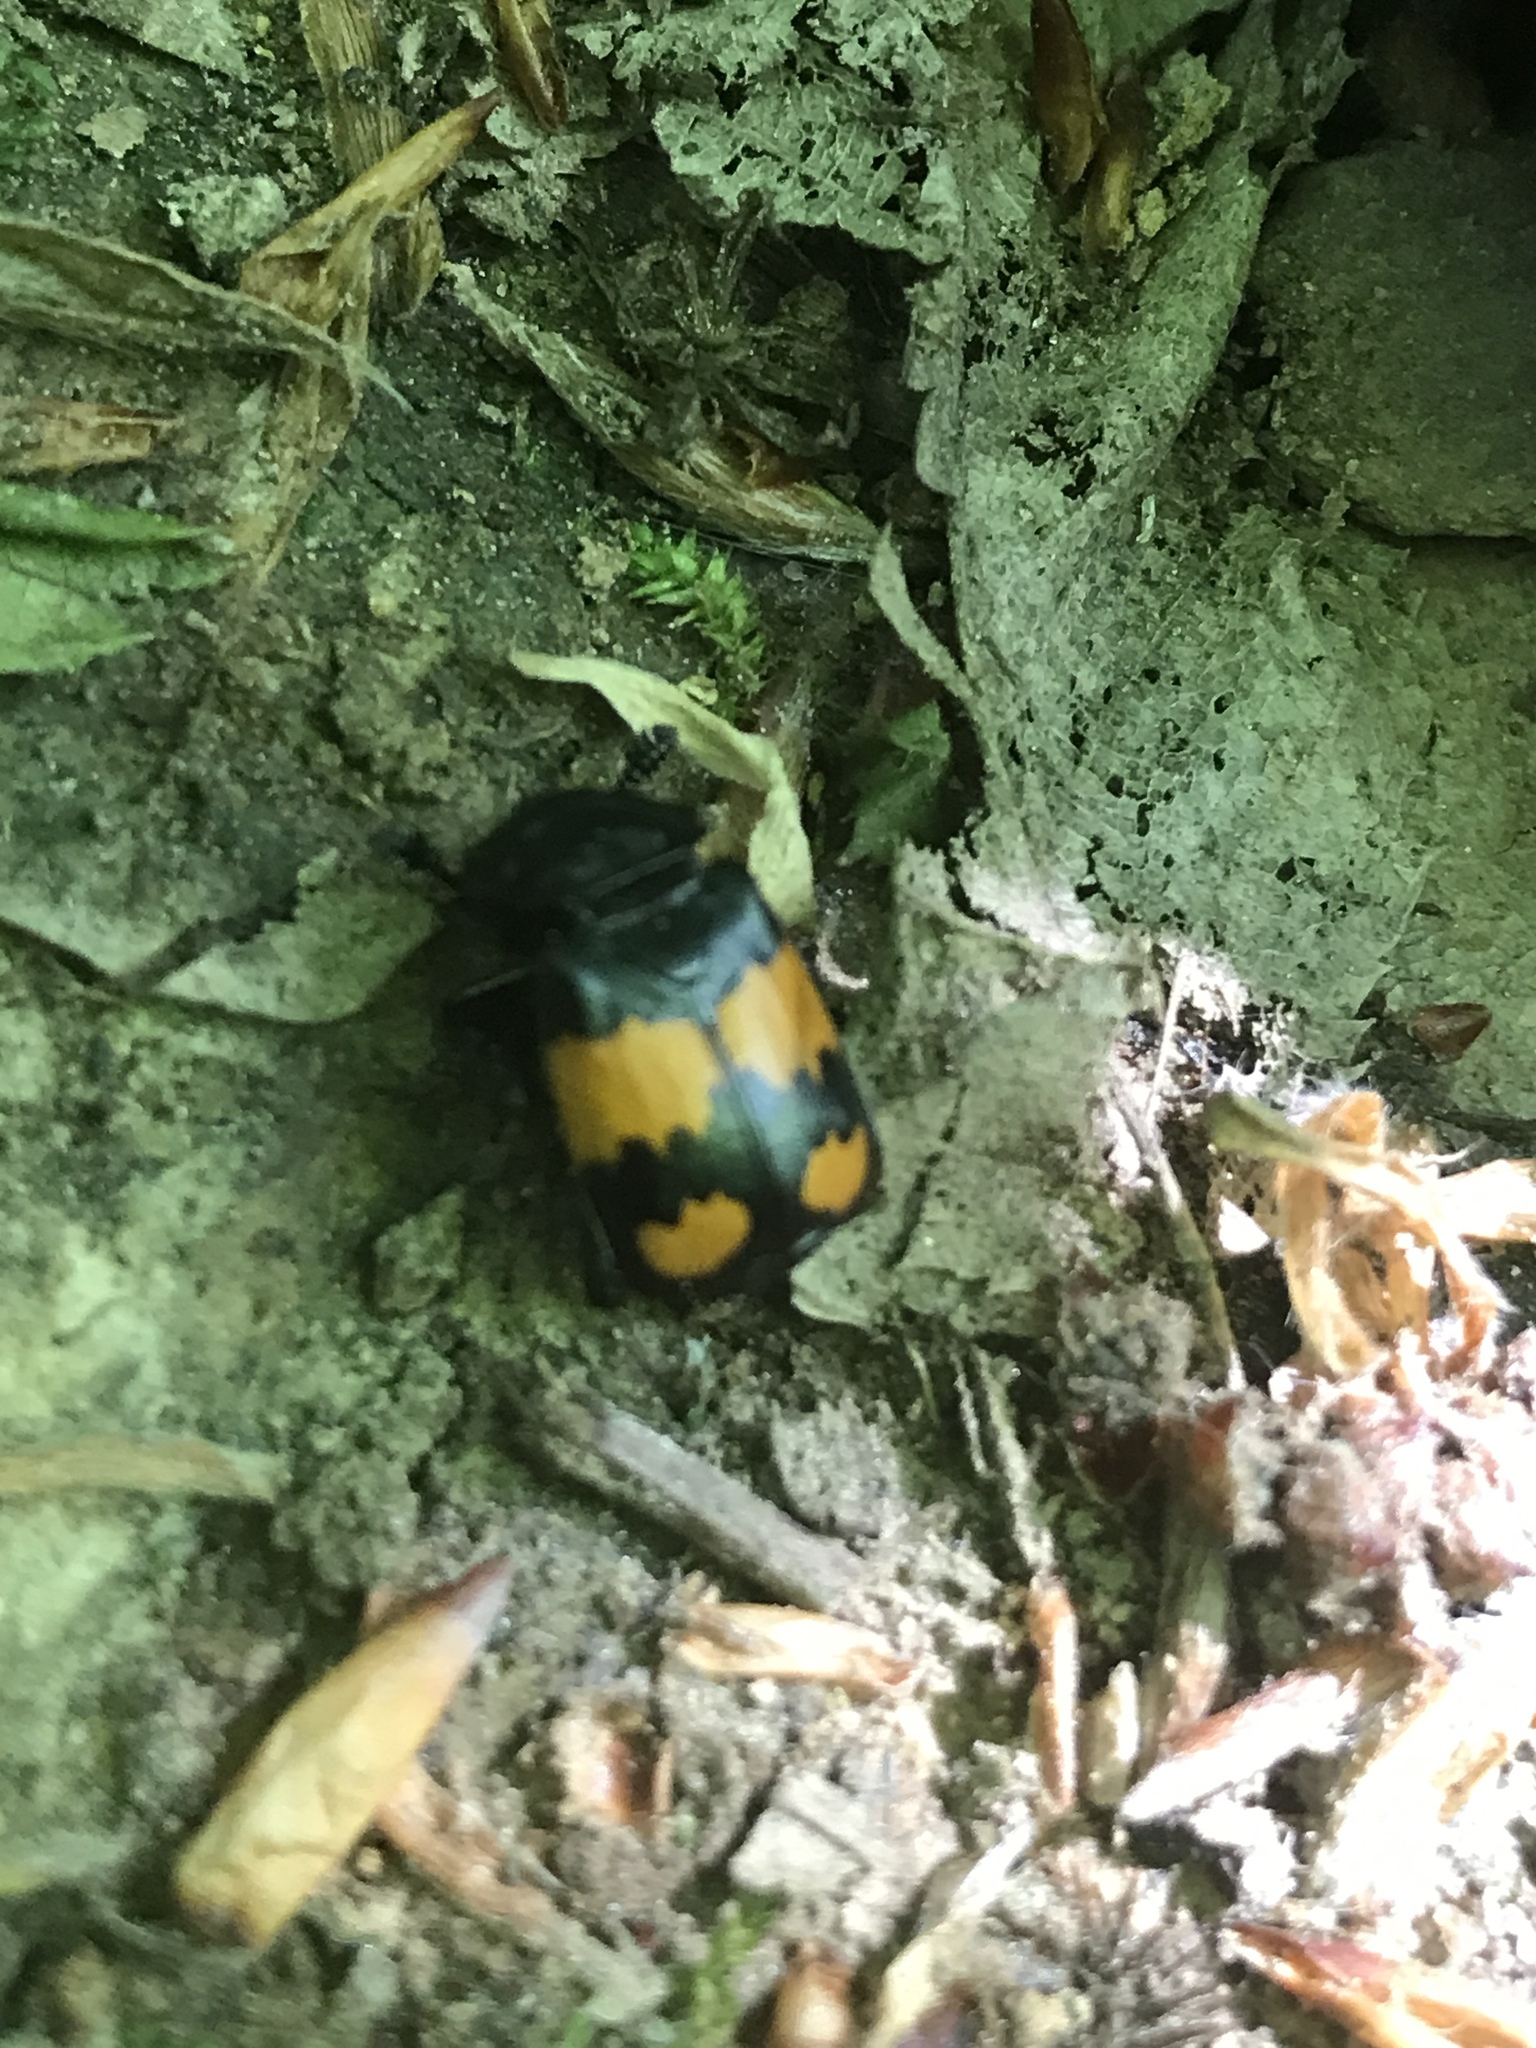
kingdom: Animalia
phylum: Arthropoda
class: Insecta
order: Coleoptera
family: Staphylinidae
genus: Nicrophorus
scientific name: Nicrophorus vespilloides
